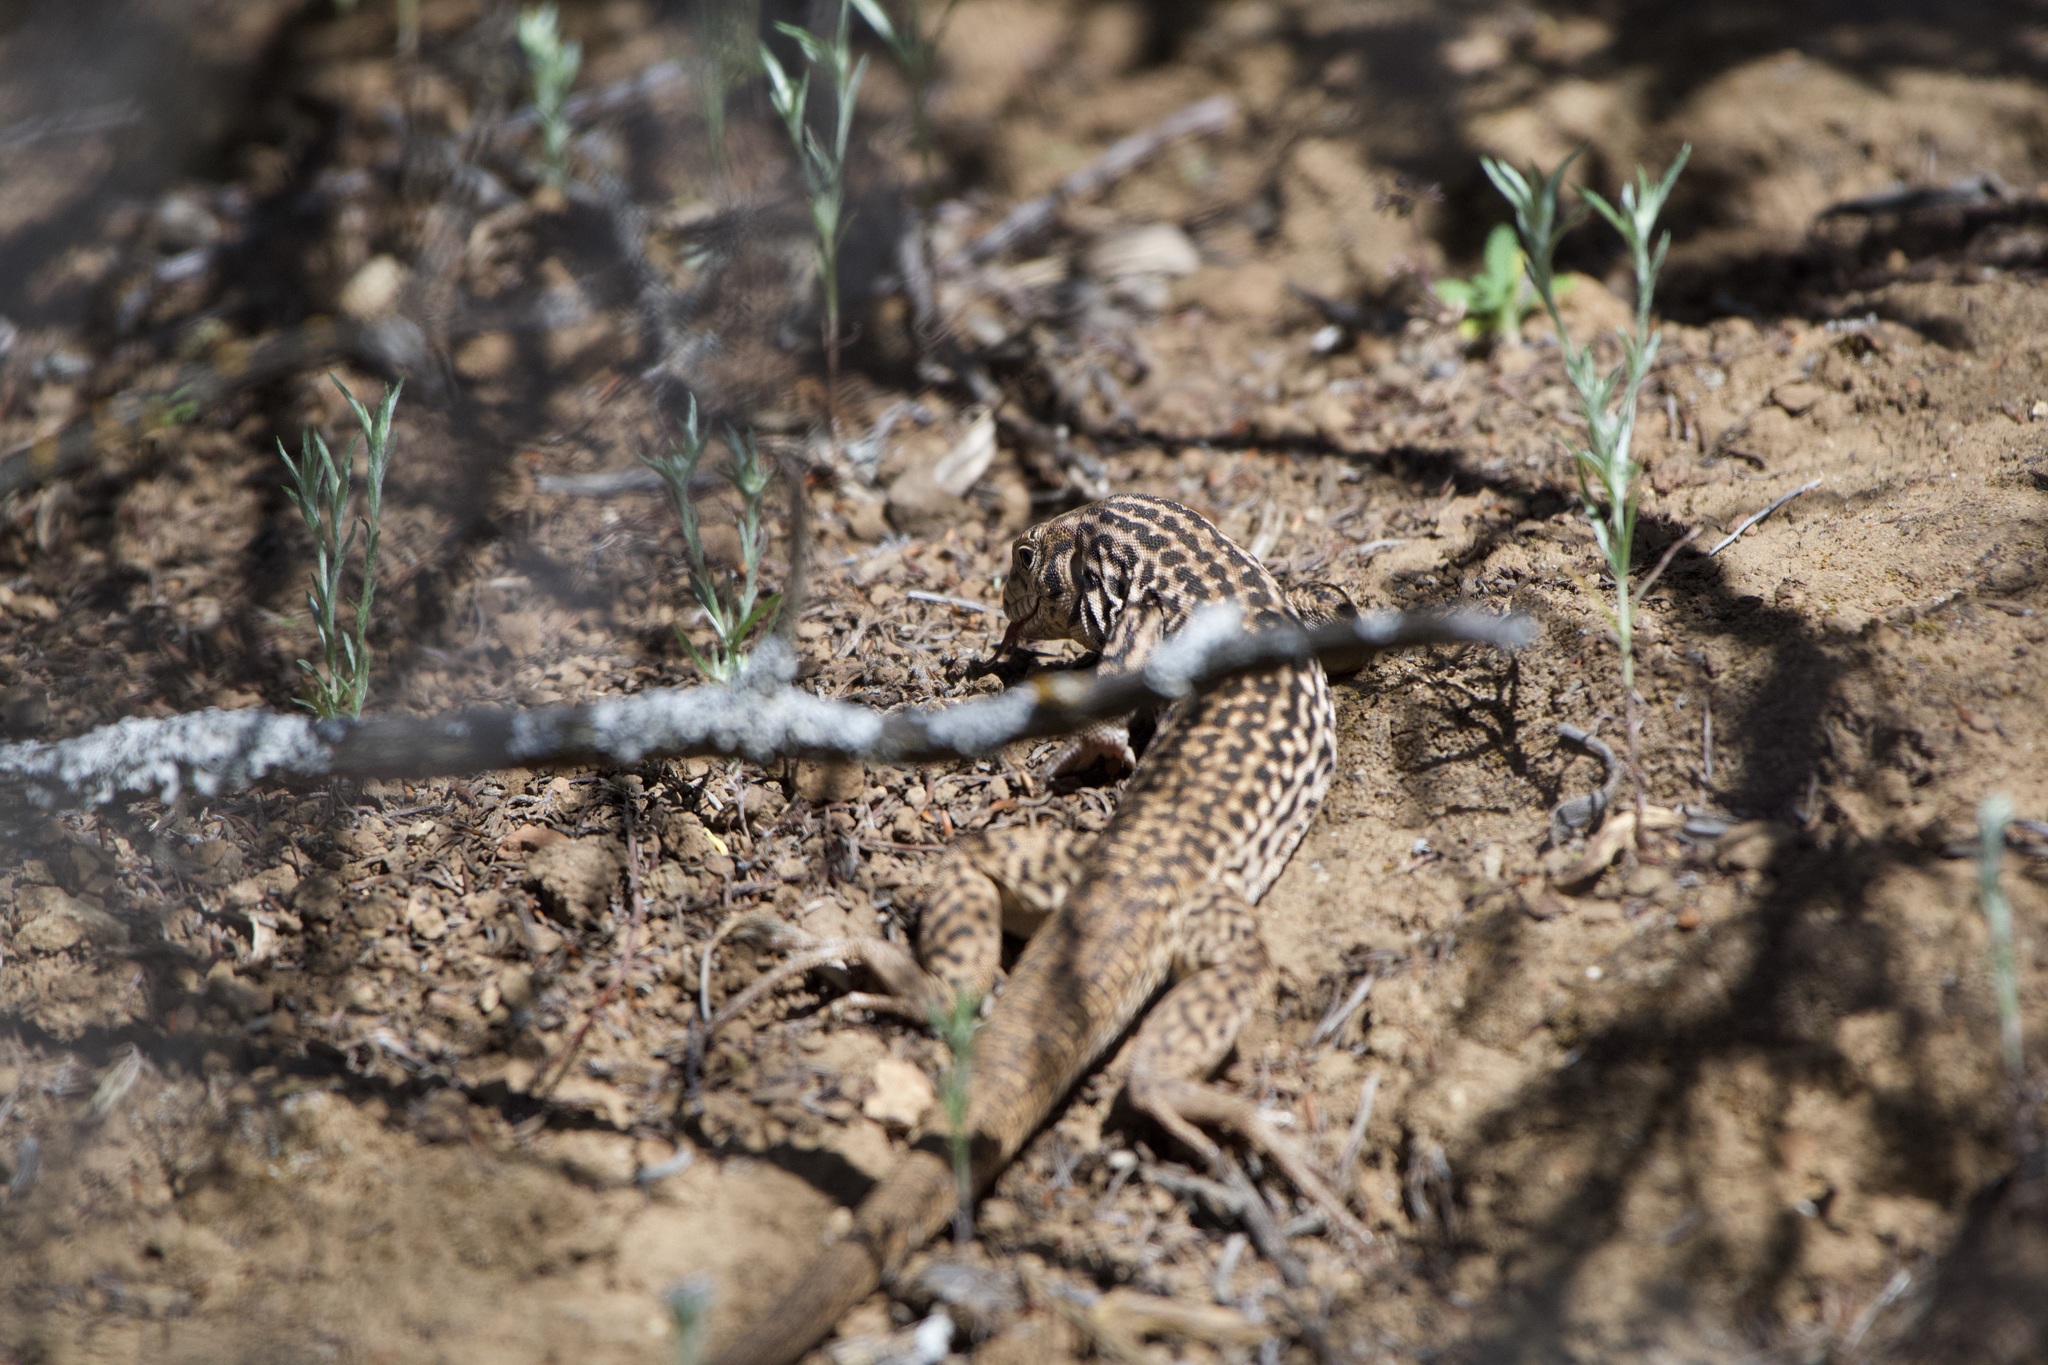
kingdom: Animalia
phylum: Chordata
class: Squamata
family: Teiidae
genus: Aspidoscelis
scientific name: Aspidoscelis tigris
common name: Tiger whiptail
